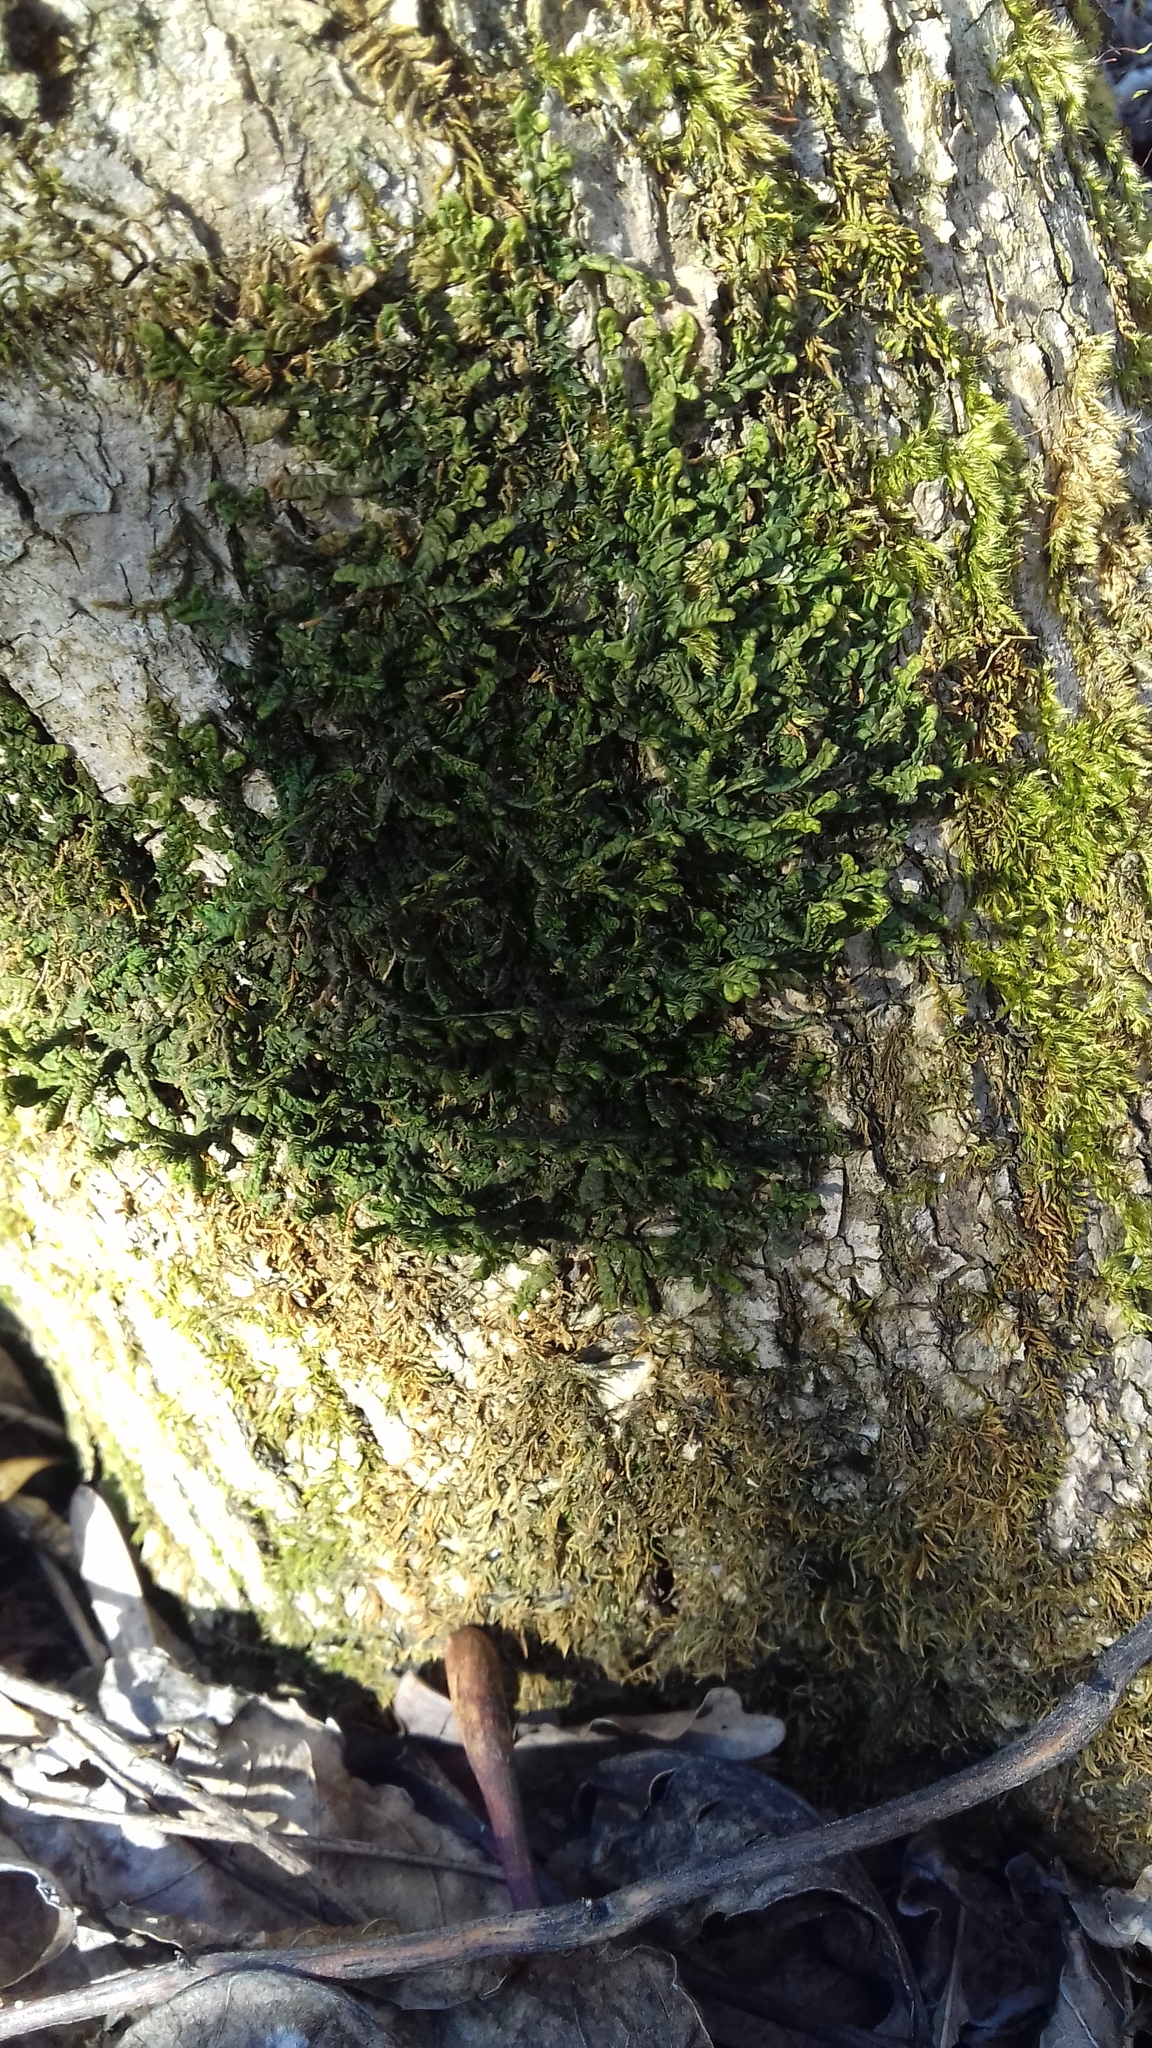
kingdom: Plantae
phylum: Marchantiophyta
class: Jungermanniopsida
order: Porellales
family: Porellaceae
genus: Porella
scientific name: Porella platyphylla
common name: Wall scalewort
